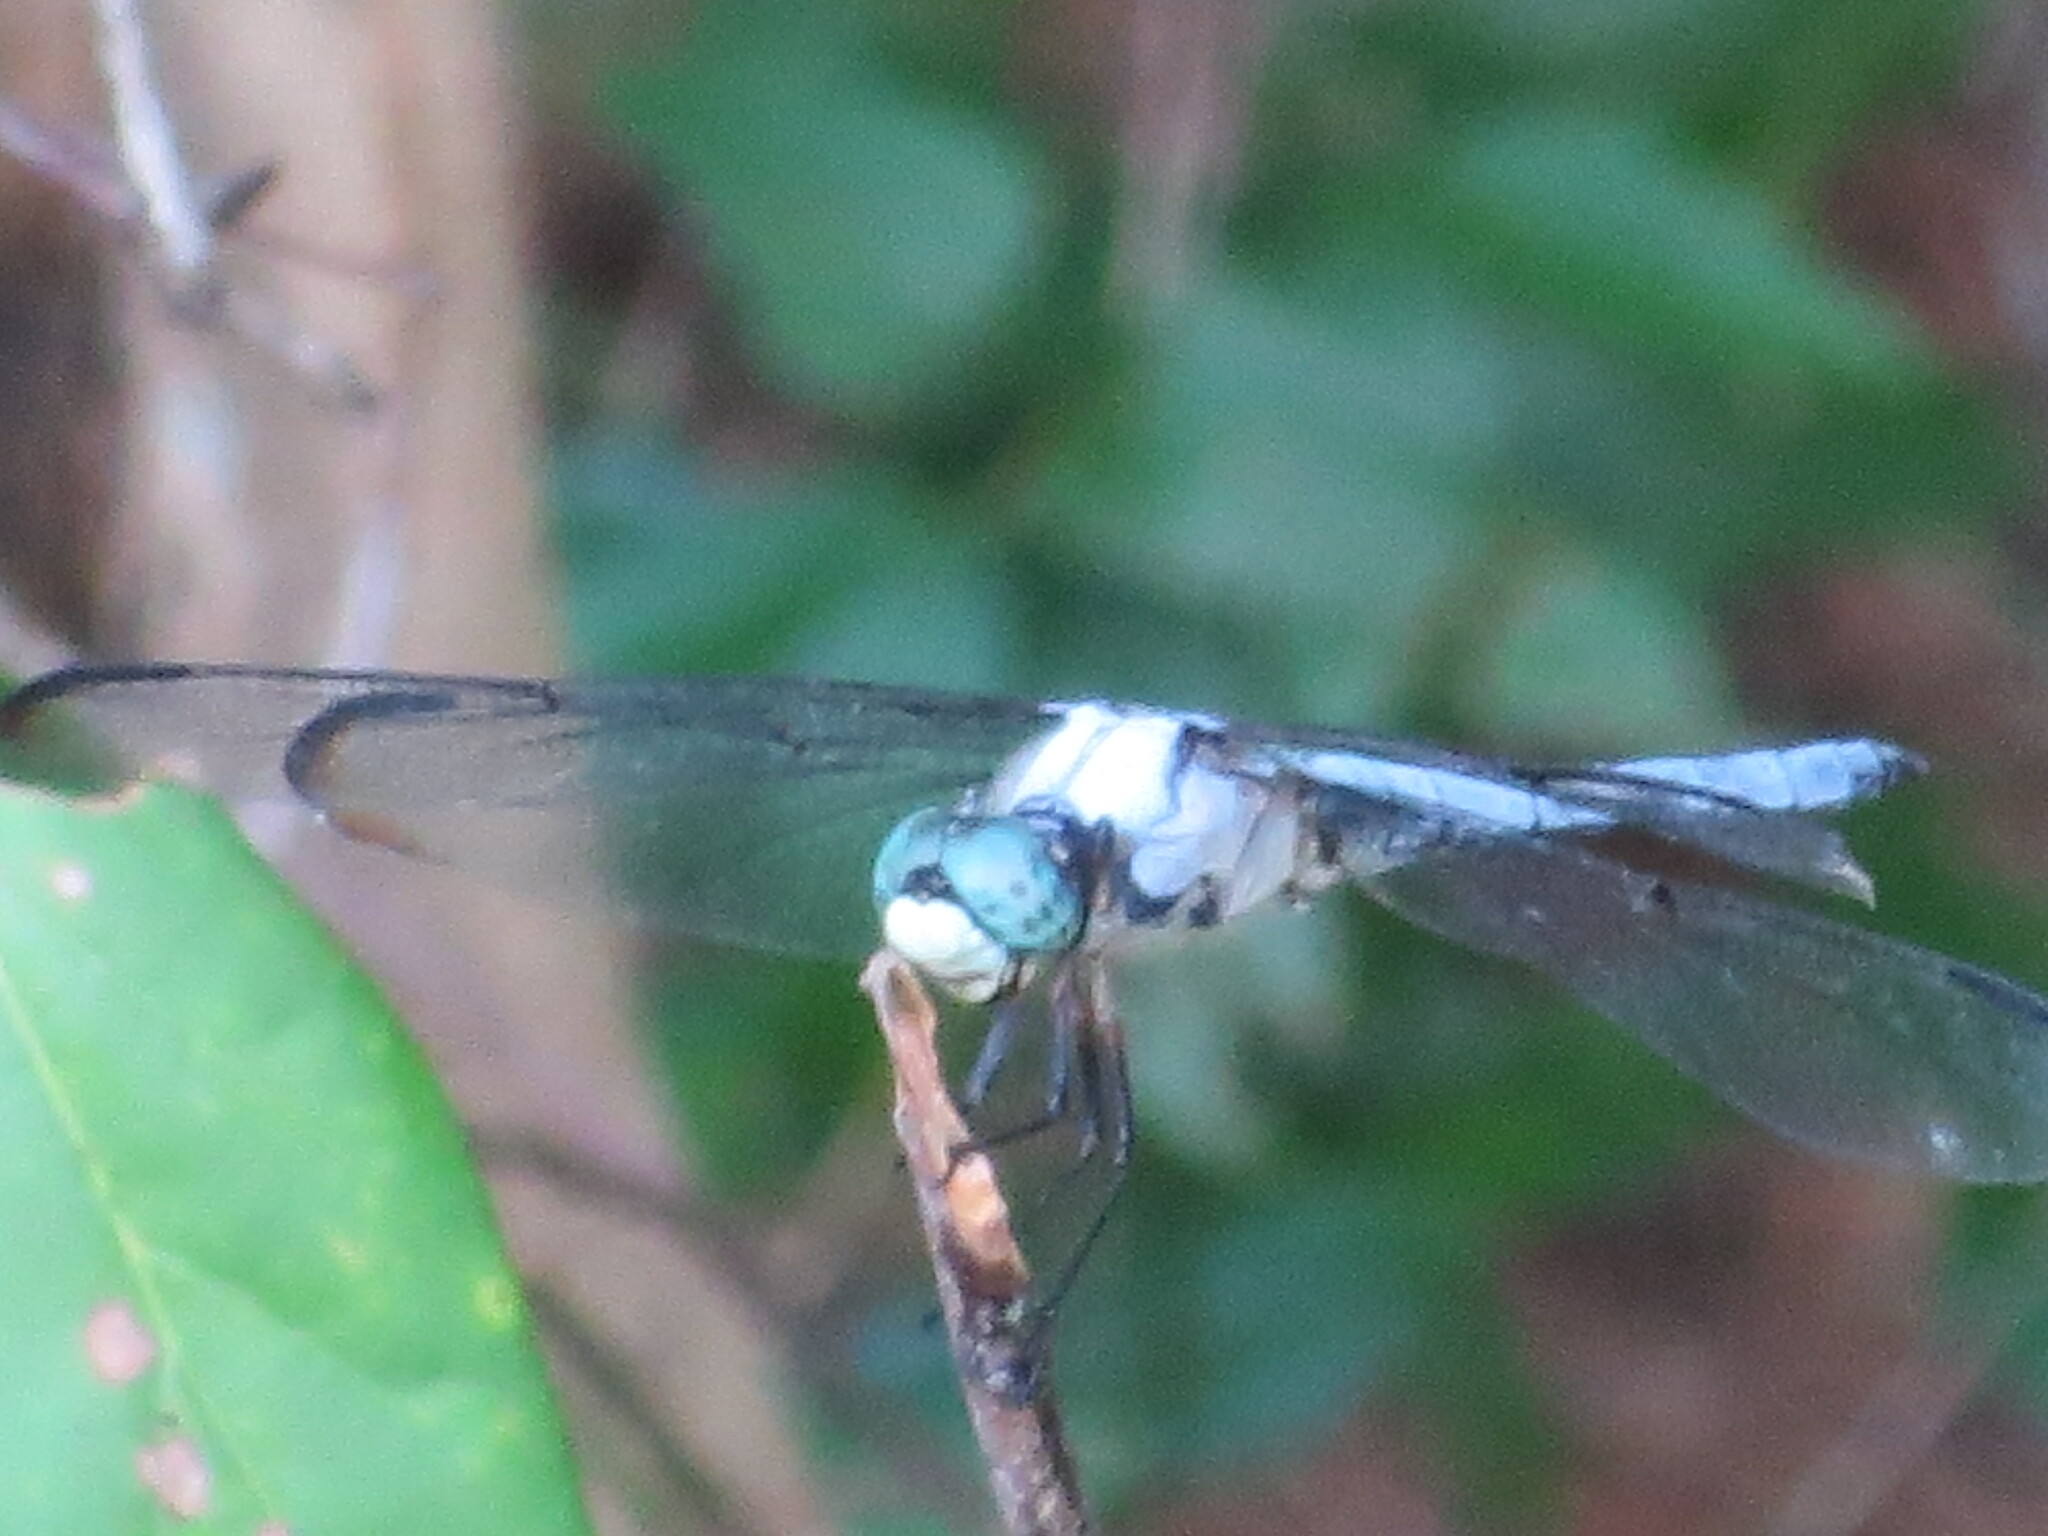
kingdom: Animalia
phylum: Arthropoda
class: Insecta
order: Odonata
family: Libellulidae
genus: Libellula
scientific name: Libellula vibrans
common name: Great blue skimmer
